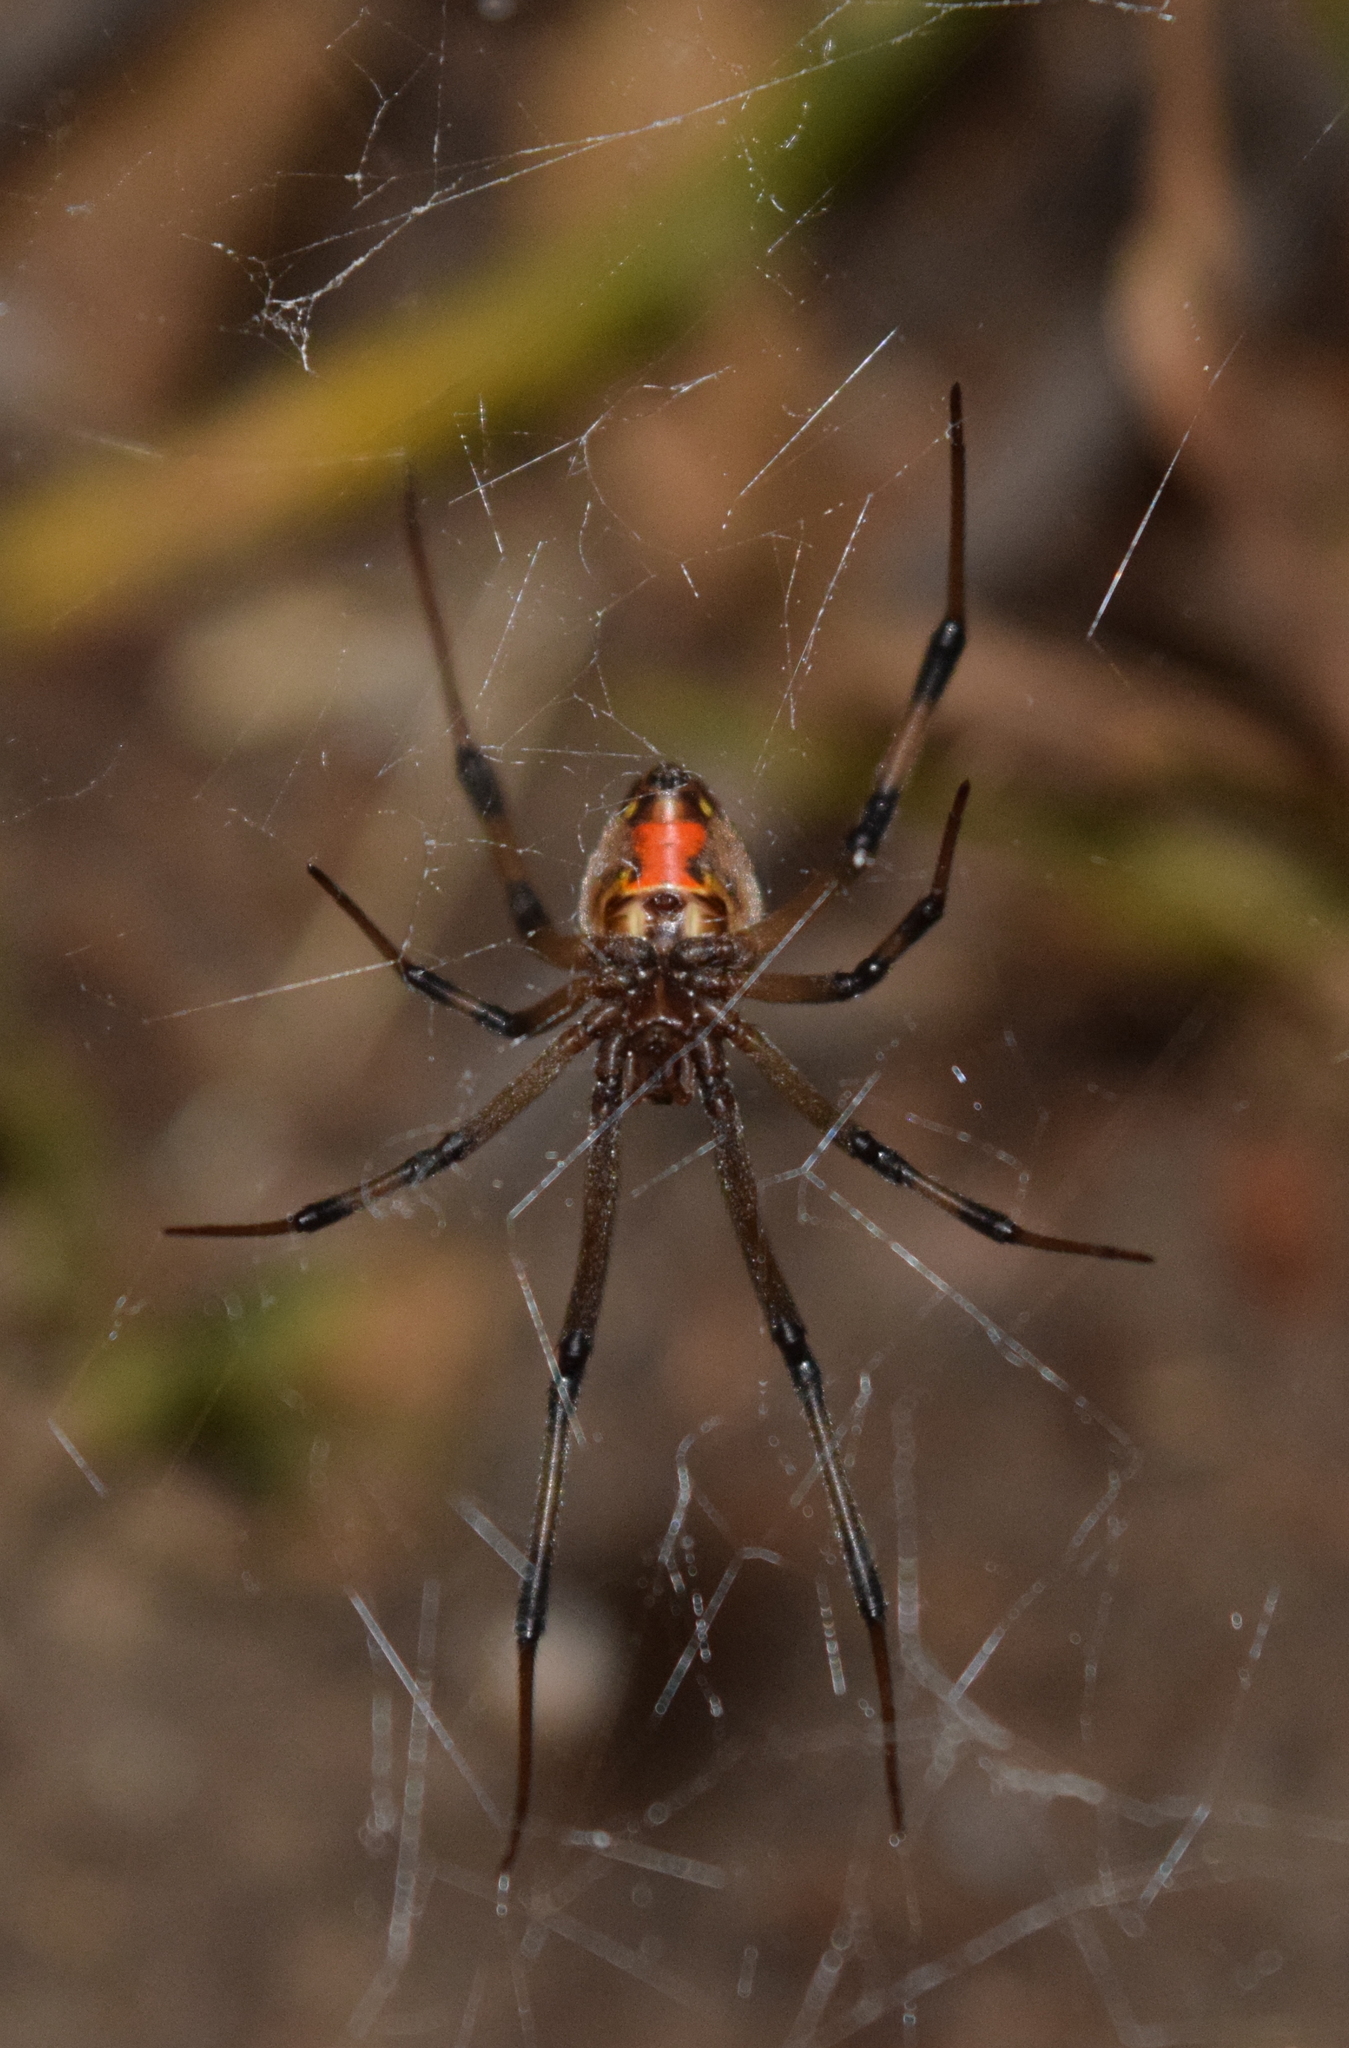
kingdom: Animalia
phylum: Arthropoda
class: Arachnida
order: Araneae
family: Theridiidae
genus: Latrodectus
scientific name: Latrodectus geometricus
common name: Brown widow spider
